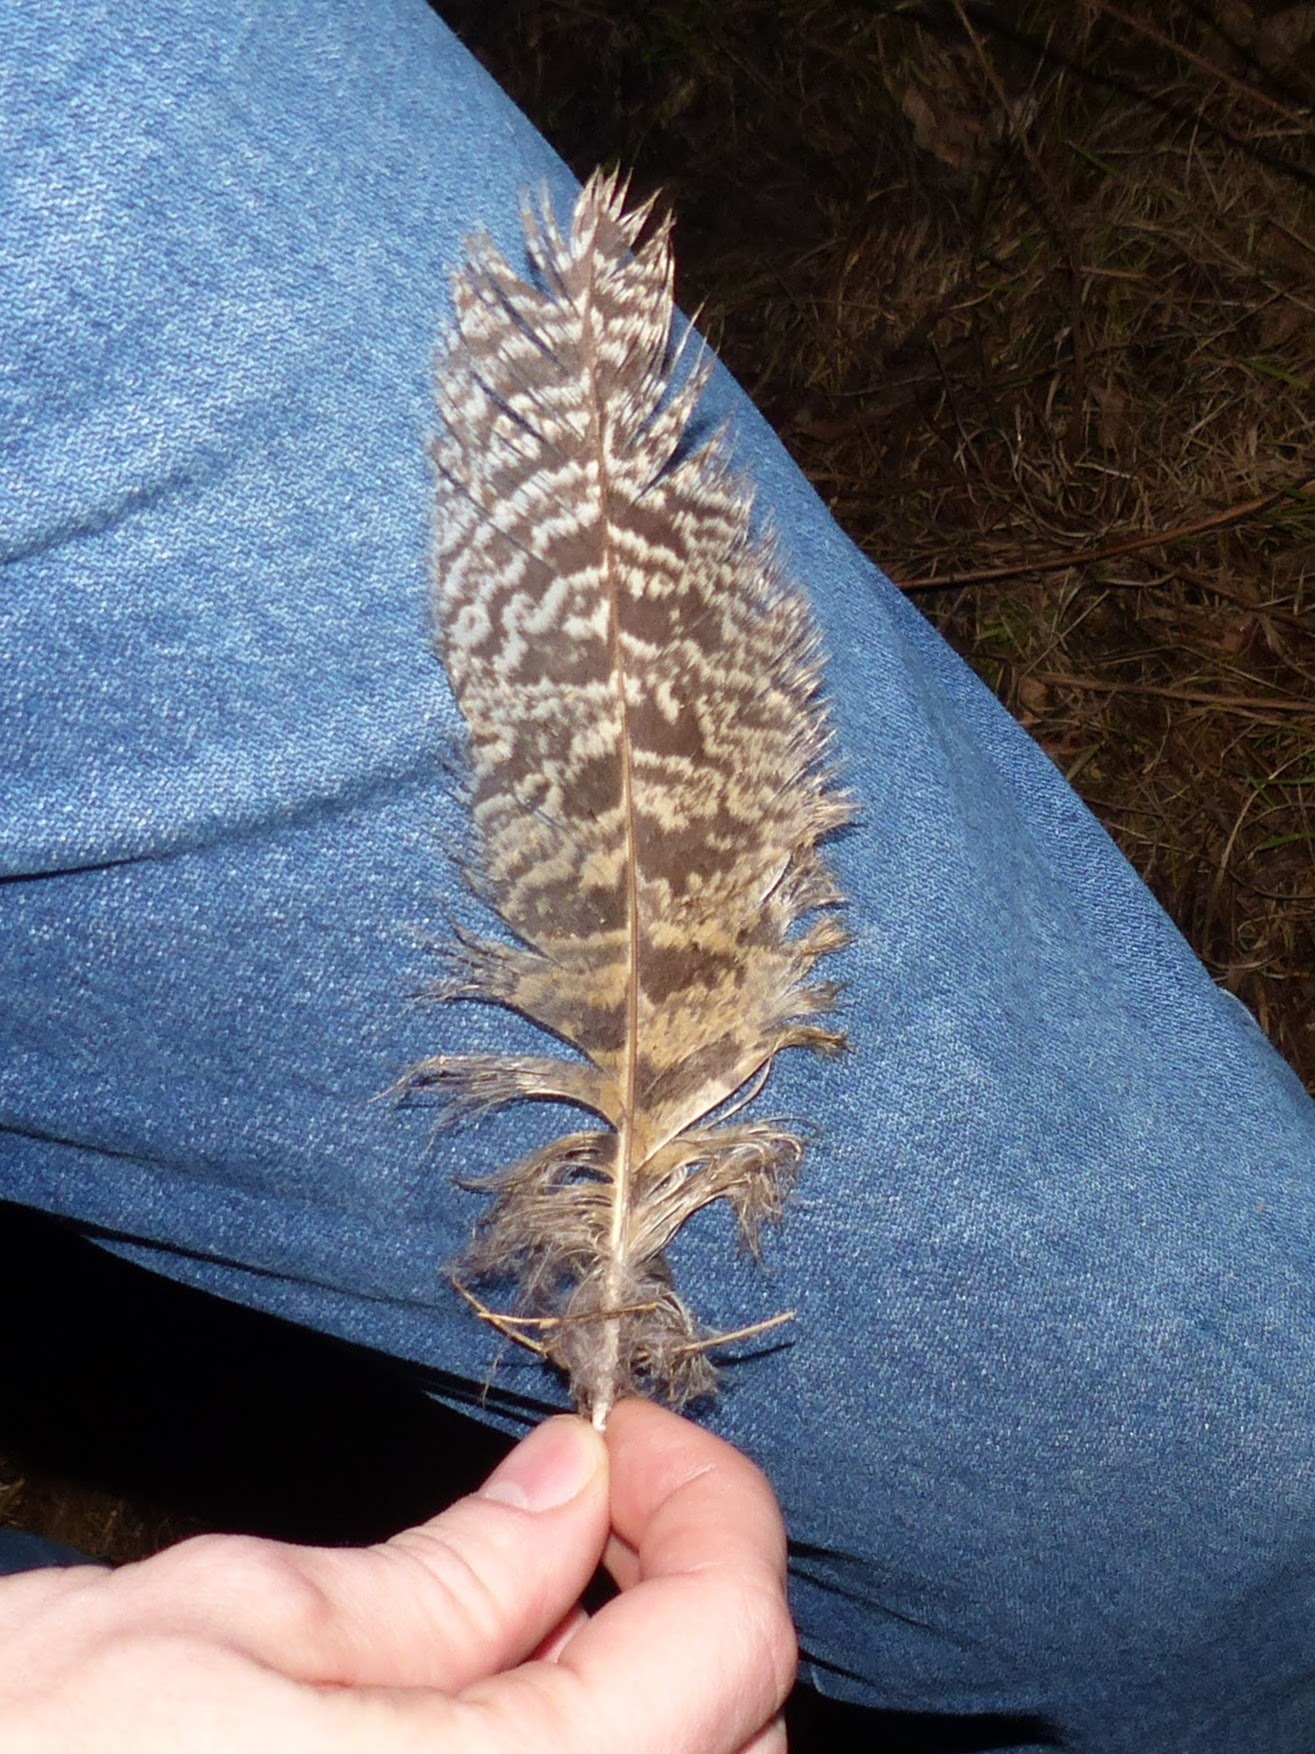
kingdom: Animalia
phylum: Chordata
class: Aves
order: Strigiformes
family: Strigidae
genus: Bubo
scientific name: Bubo virginianus
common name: Great horned owl
